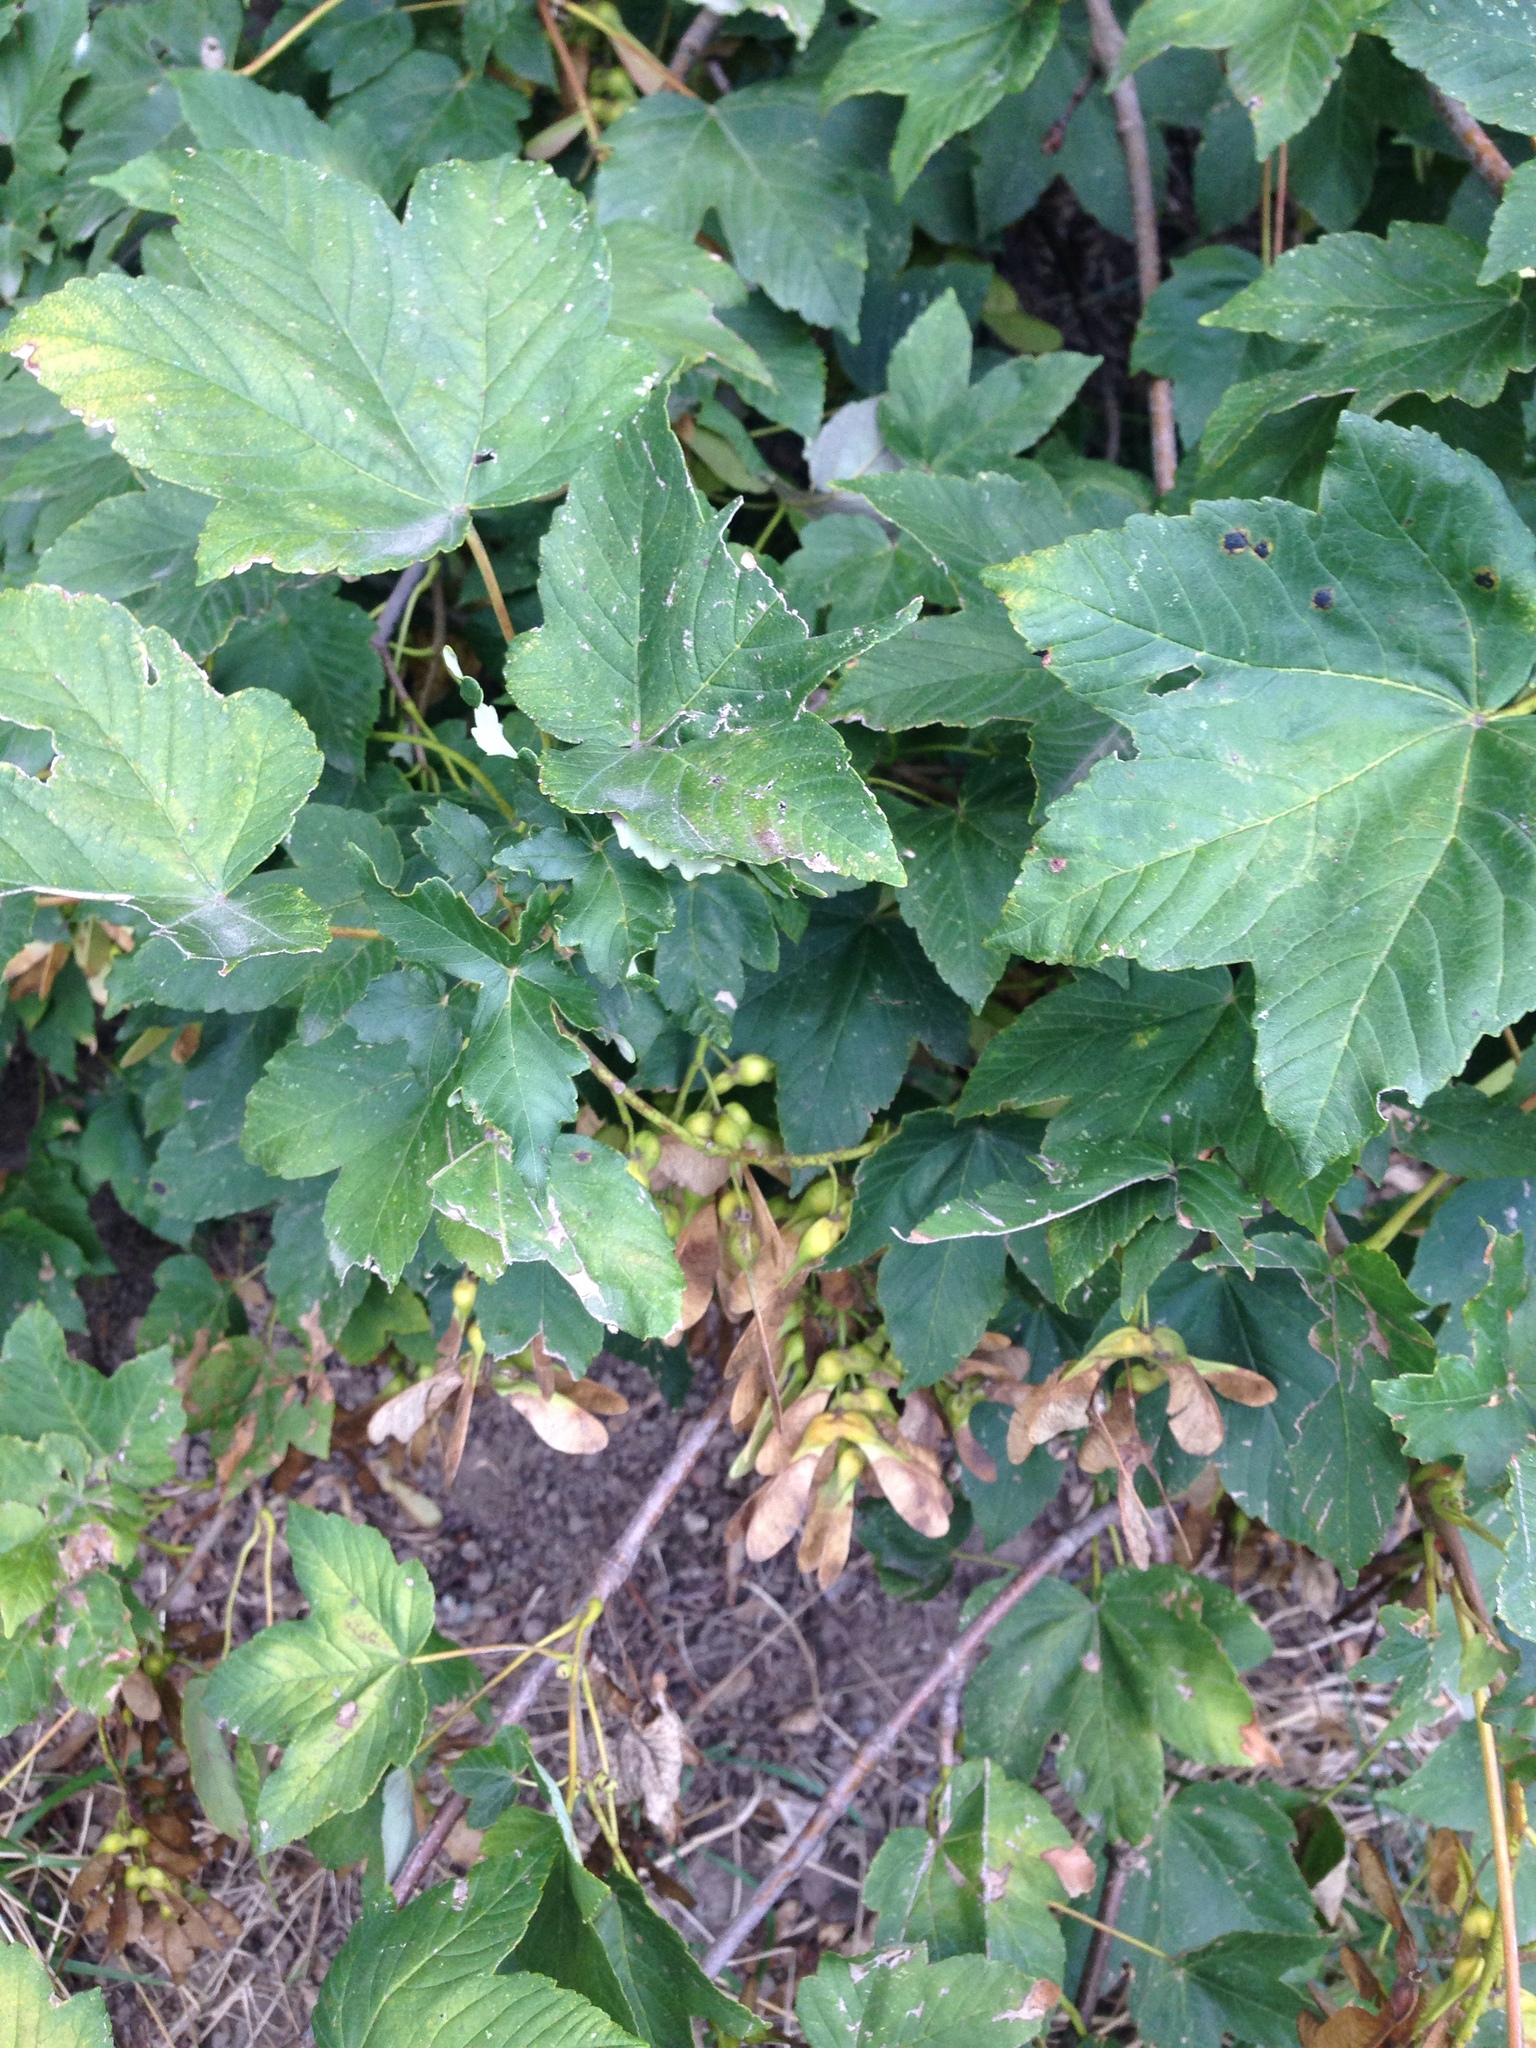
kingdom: Plantae
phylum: Tracheophyta
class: Magnoliopsida
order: Sapindales
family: Sapindaceae
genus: Acer
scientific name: Acer pseudoplatanus
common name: Sycamore
